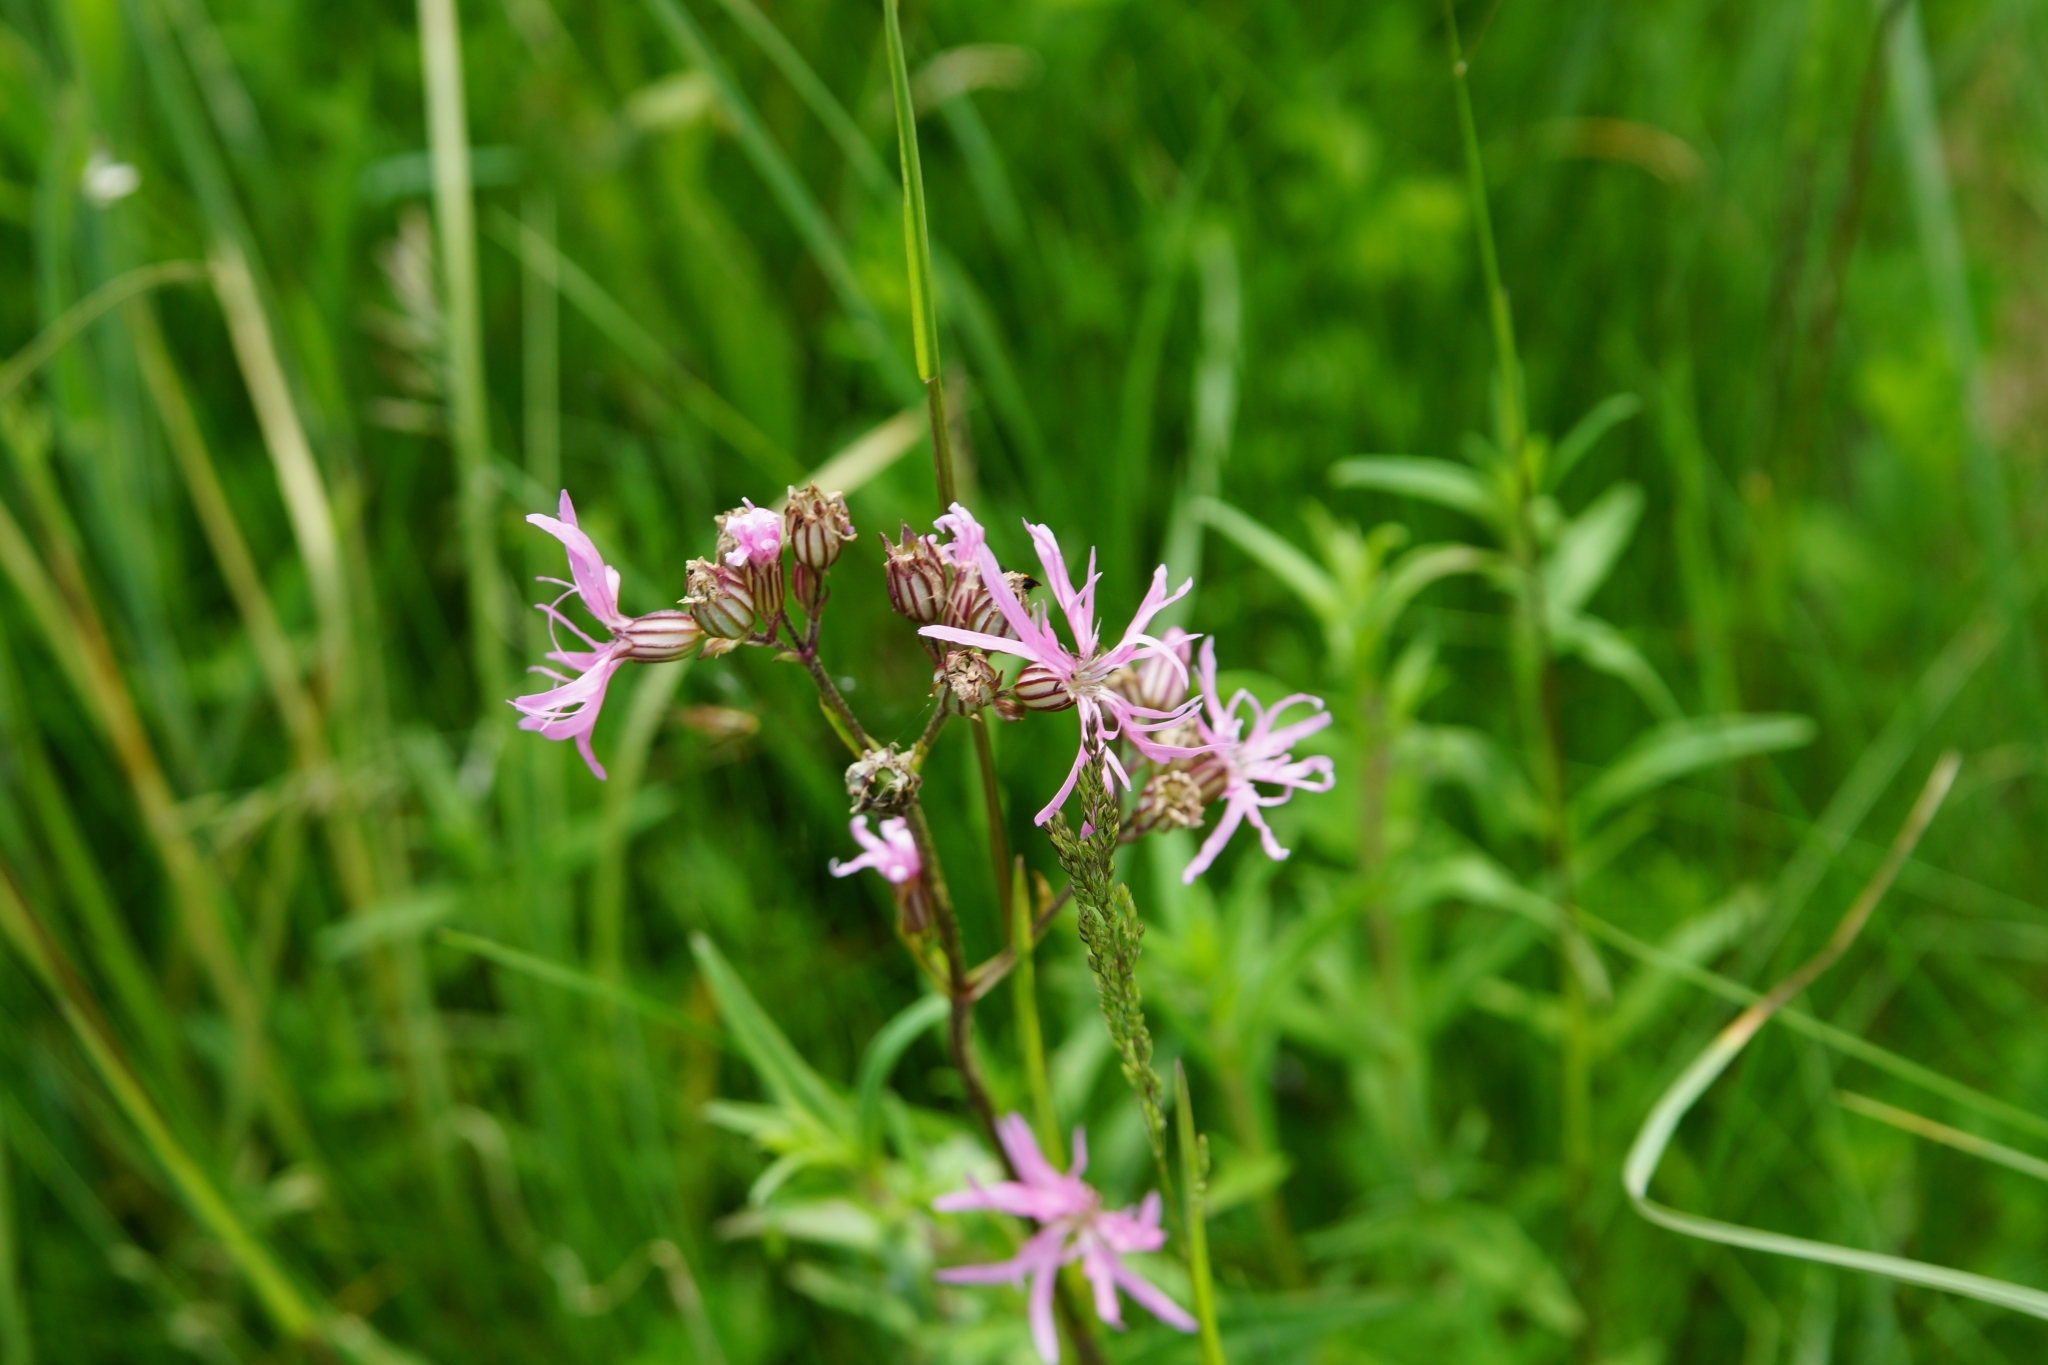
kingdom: Plantae
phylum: Tracheophyta
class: Magnoliopsida
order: Caryophyllales
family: Caryophyllaceae
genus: Silene
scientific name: Silene flos-cuculi
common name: Ragged-robin
